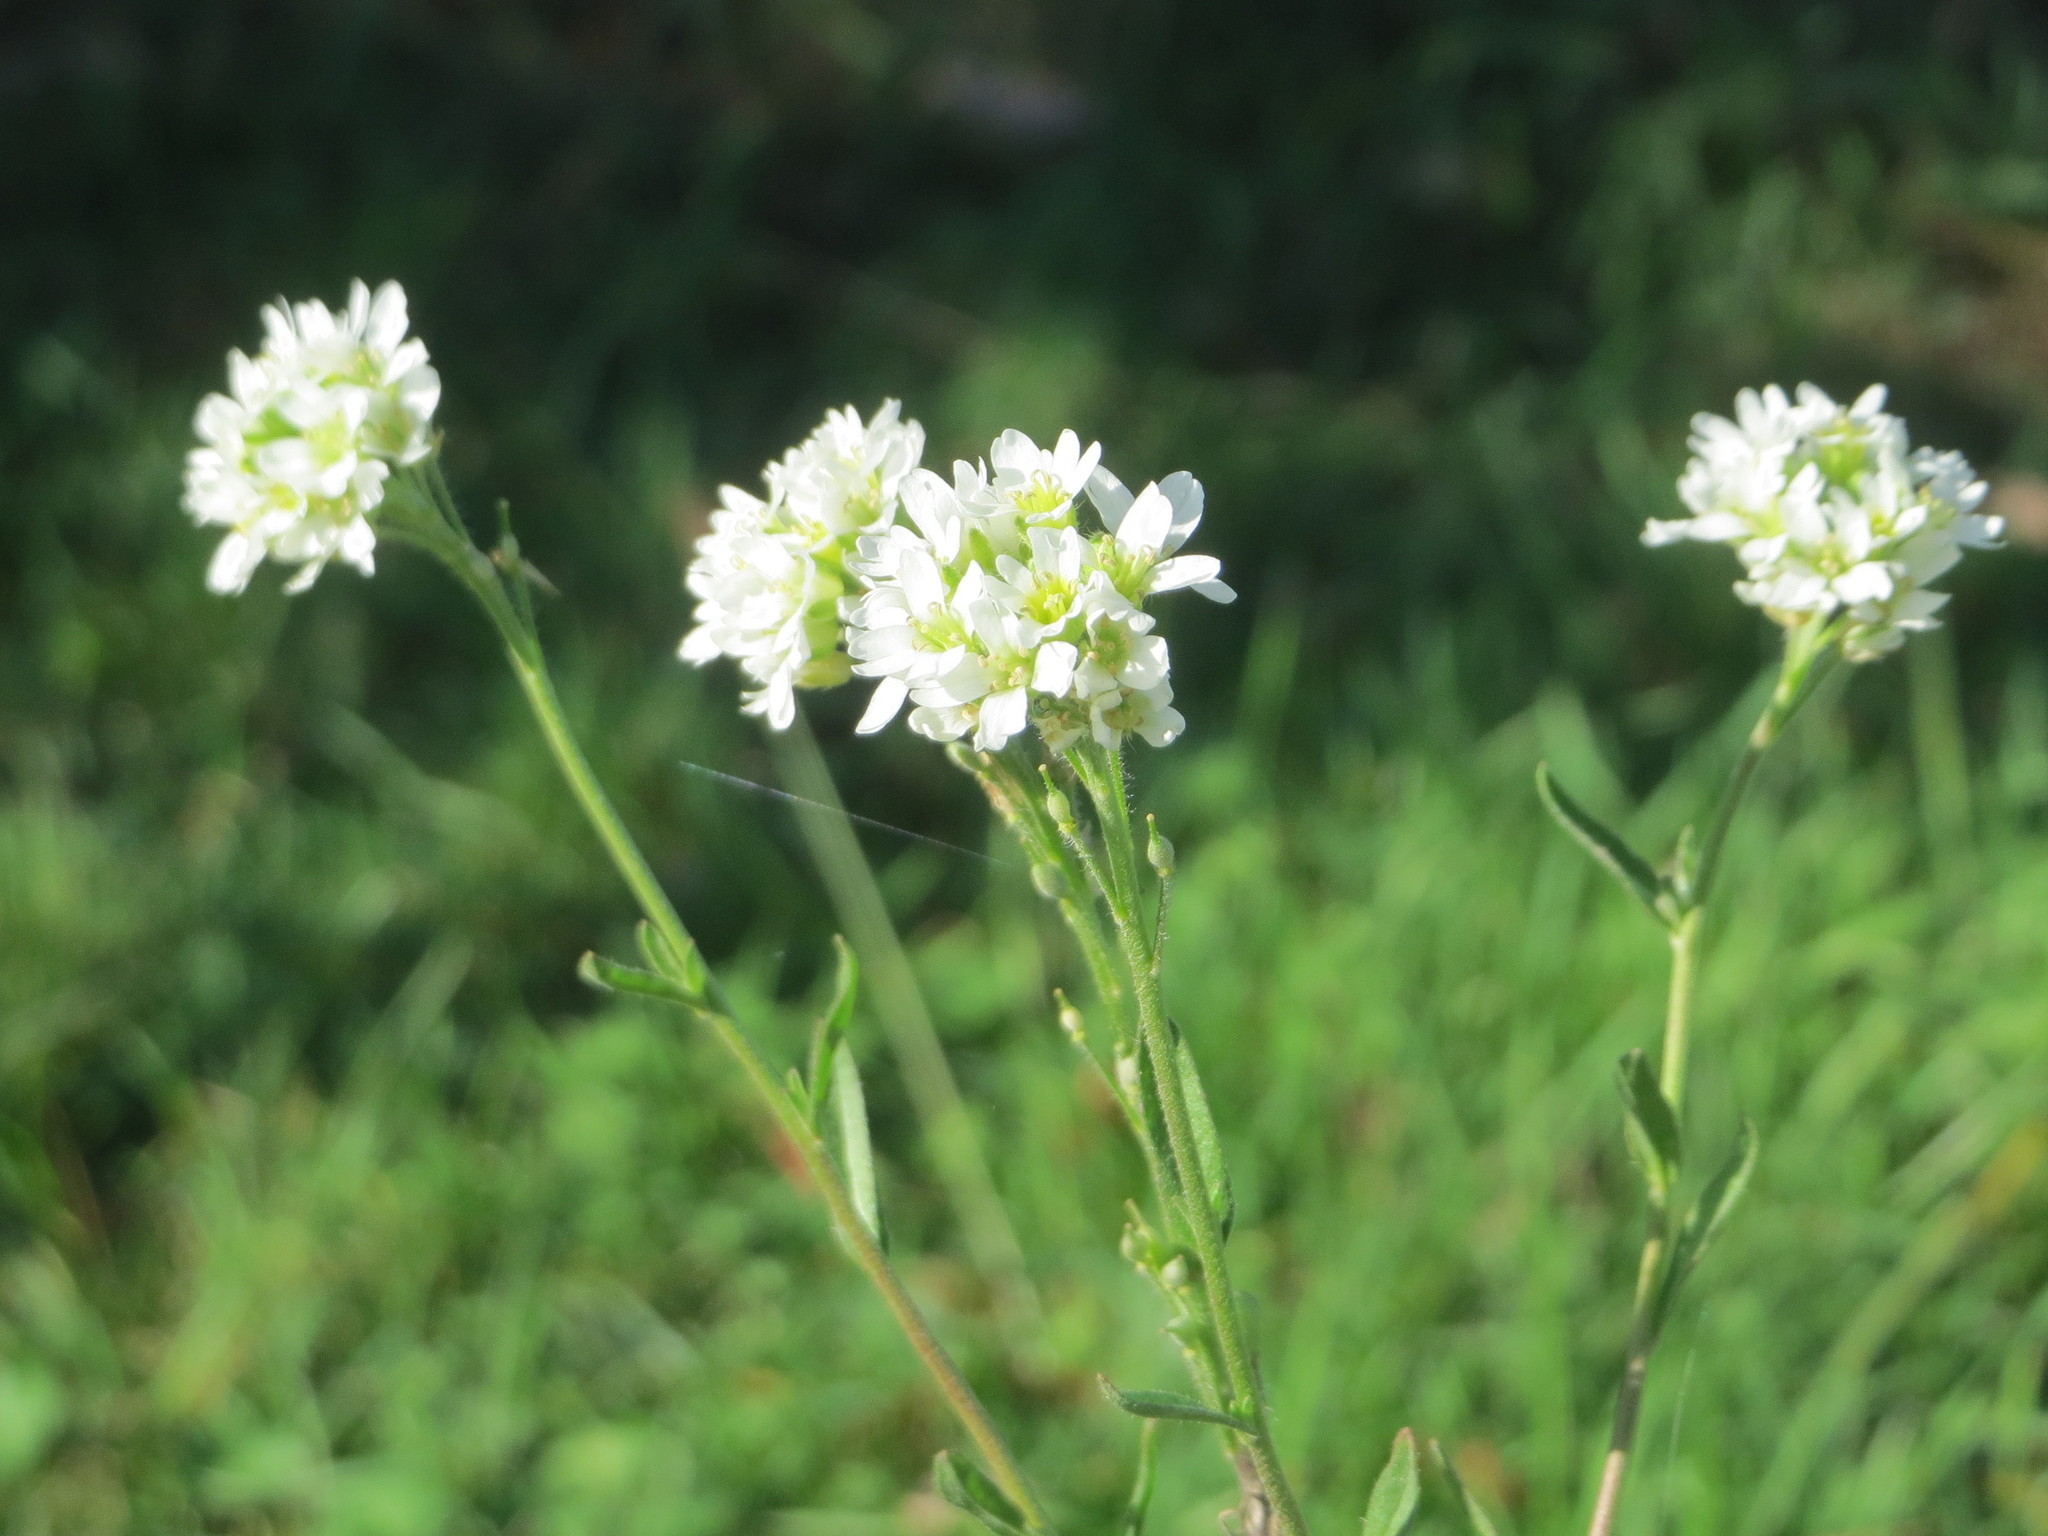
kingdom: Plantae
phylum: Tracheophyta
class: Magnoliopsida
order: Brassicales
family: Brassicaceae
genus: Berteroa
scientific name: Berteroa incana
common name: Hoary alison
